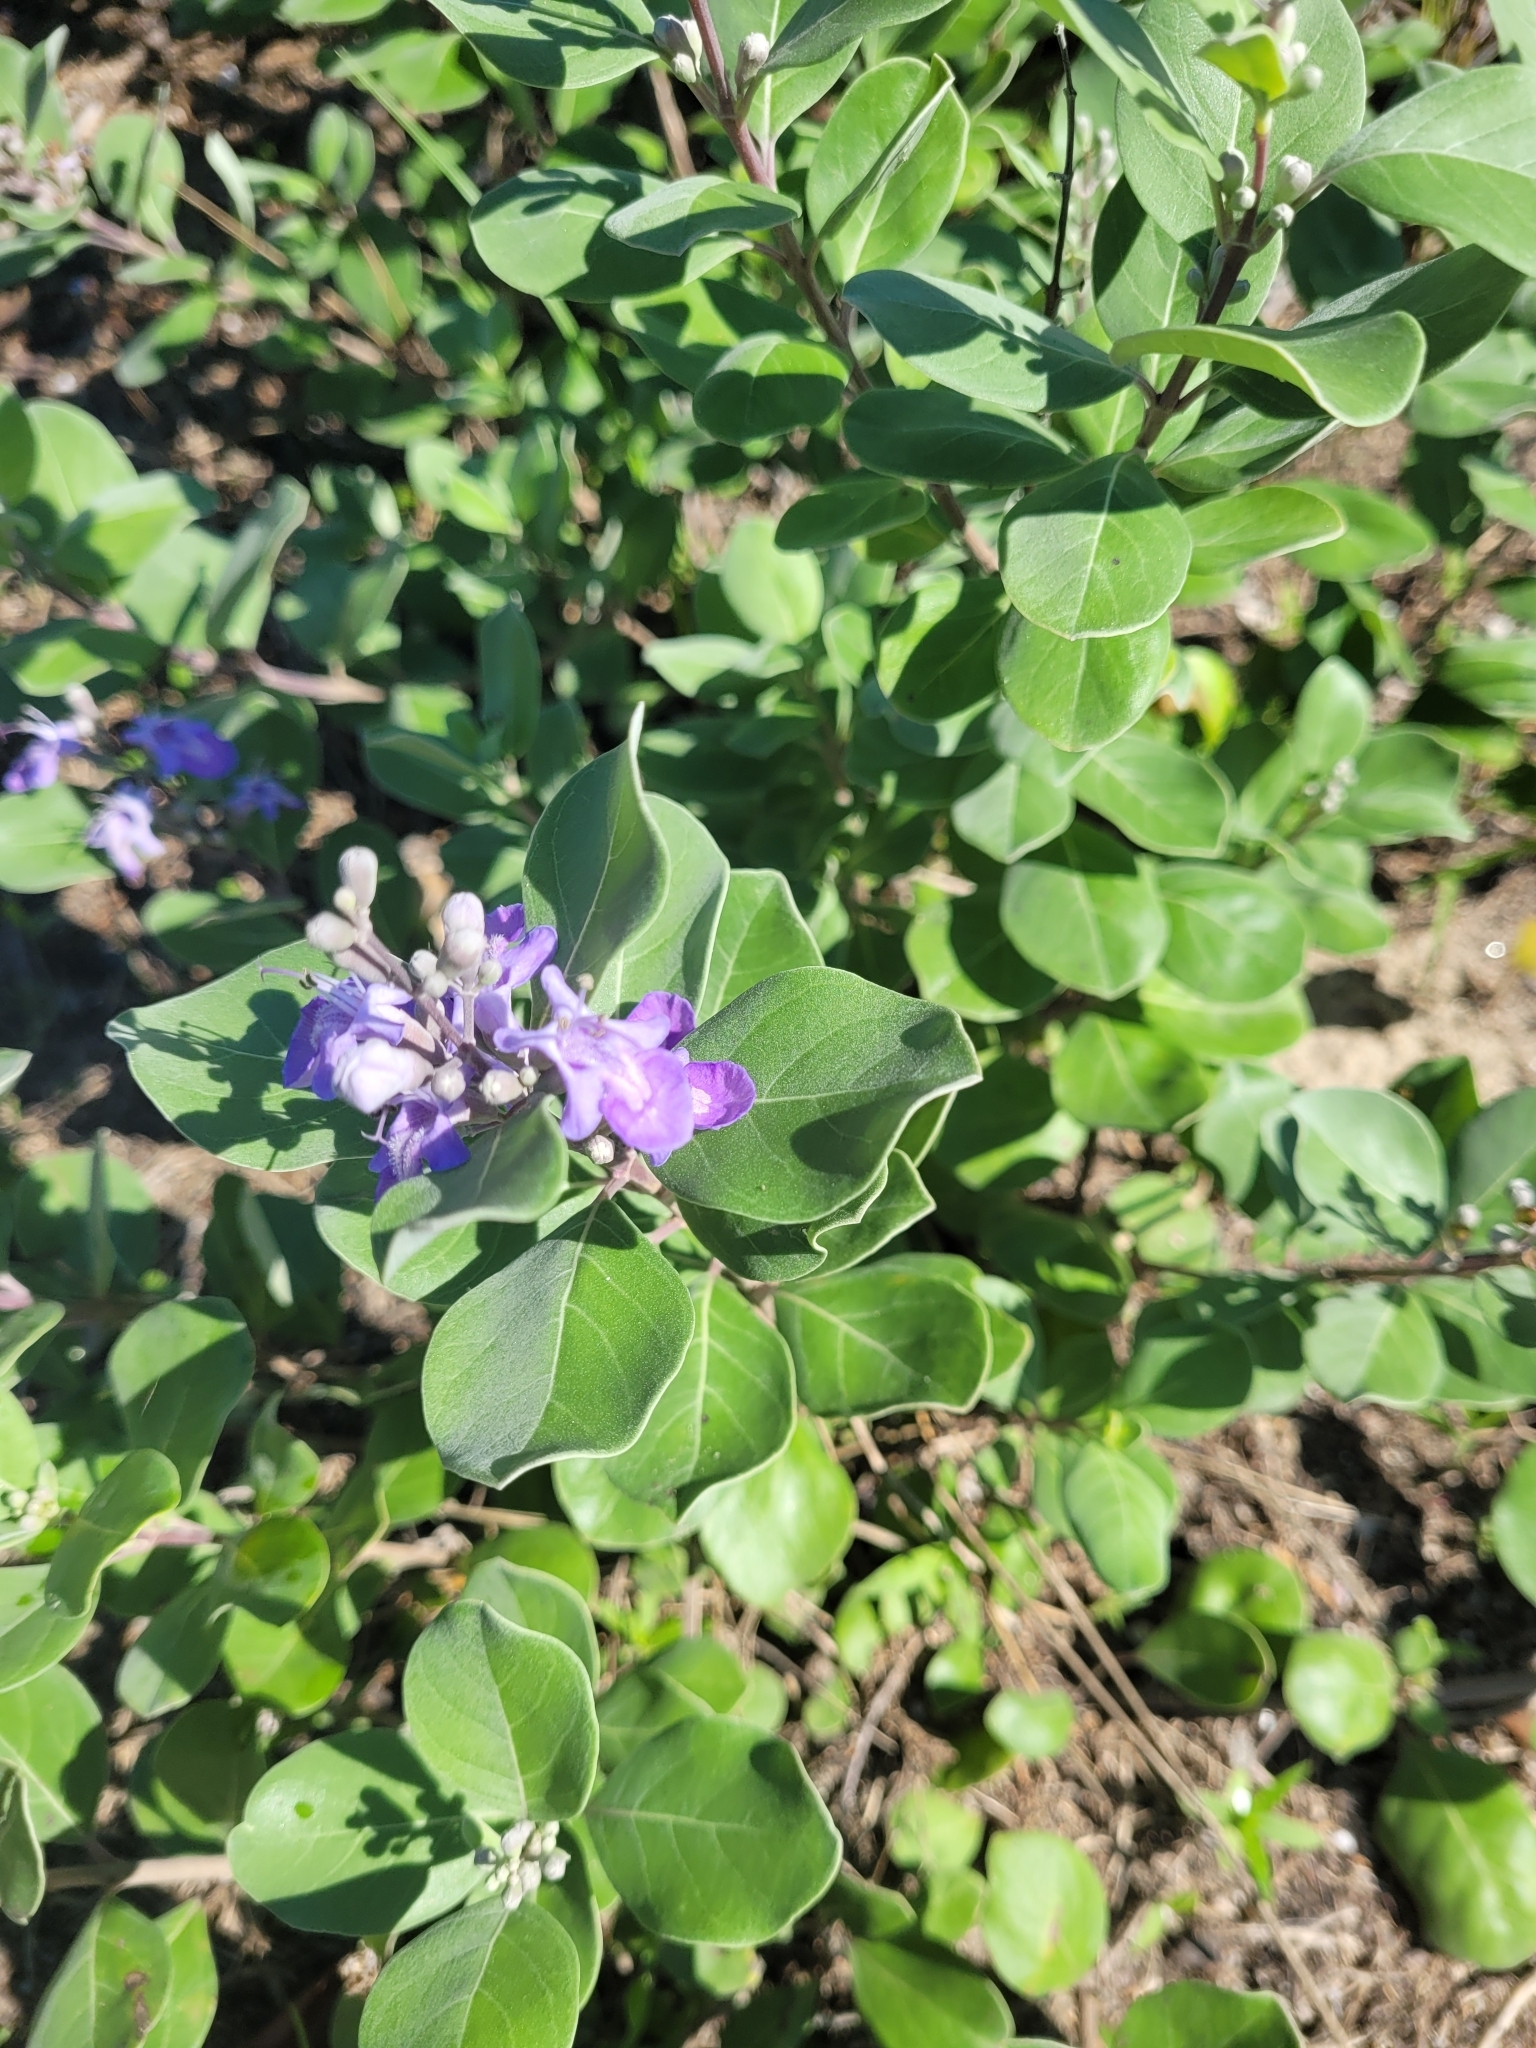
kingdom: Plantae
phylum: Tracheophyta
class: Magnoliopsida
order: Lamiales
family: Lamiaceae
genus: Vitex
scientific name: Vitex rotundifolia
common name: Beach vitex
